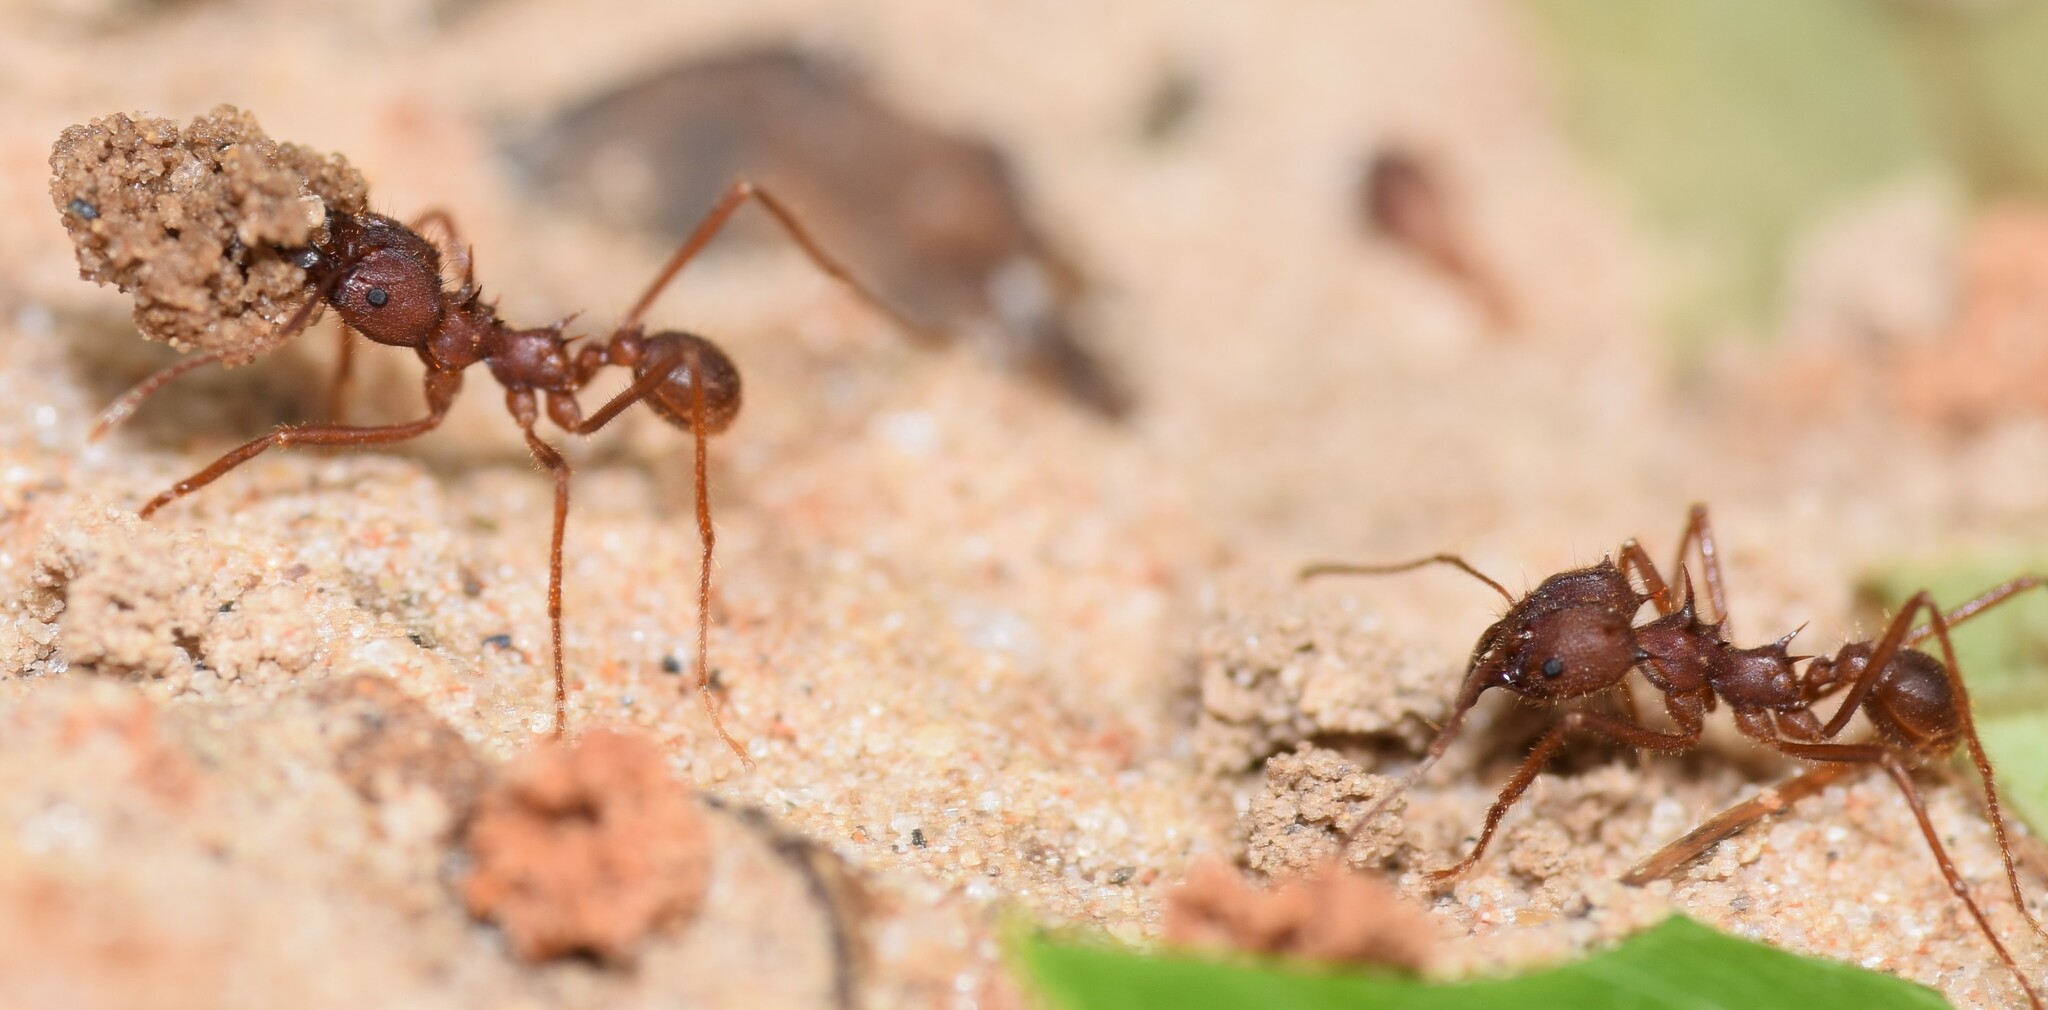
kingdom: Animalia
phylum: Arthropoda
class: Insecta
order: Hymenoptera
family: Formicidae
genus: Atta
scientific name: Atta texana
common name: Texas leafcutting ant
